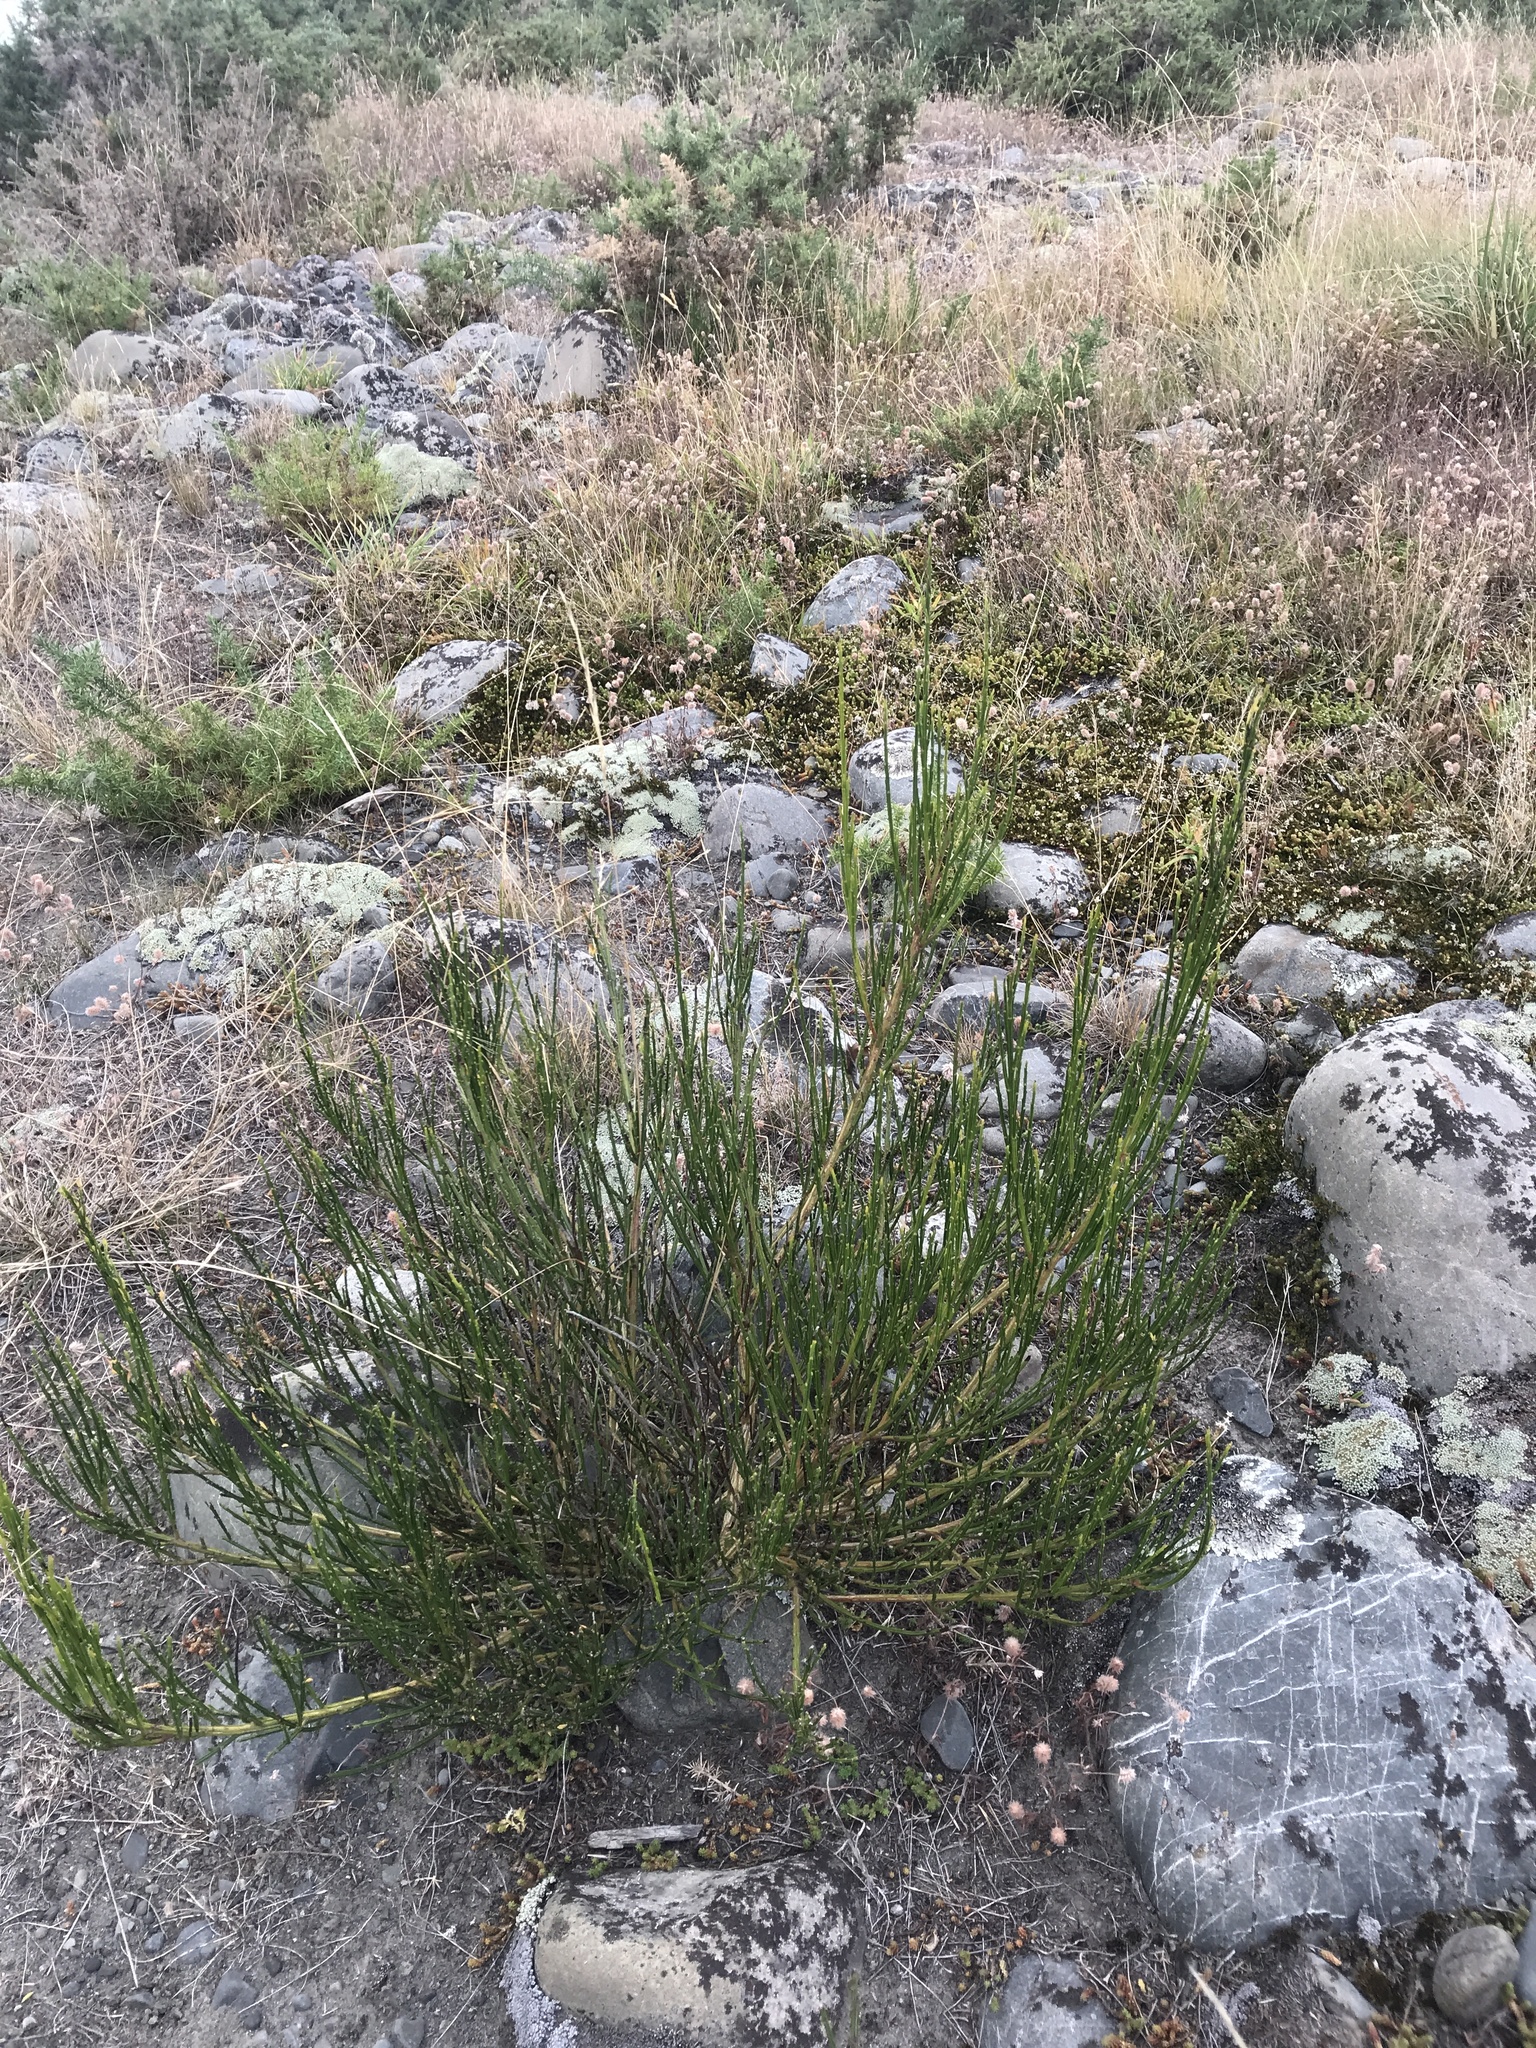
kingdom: Plantae
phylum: Tracheophyta
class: Magnoliopsida
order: Fabales
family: Fabaceae
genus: Cytisus
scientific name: Cytisus scoparius
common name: Scotch broom
